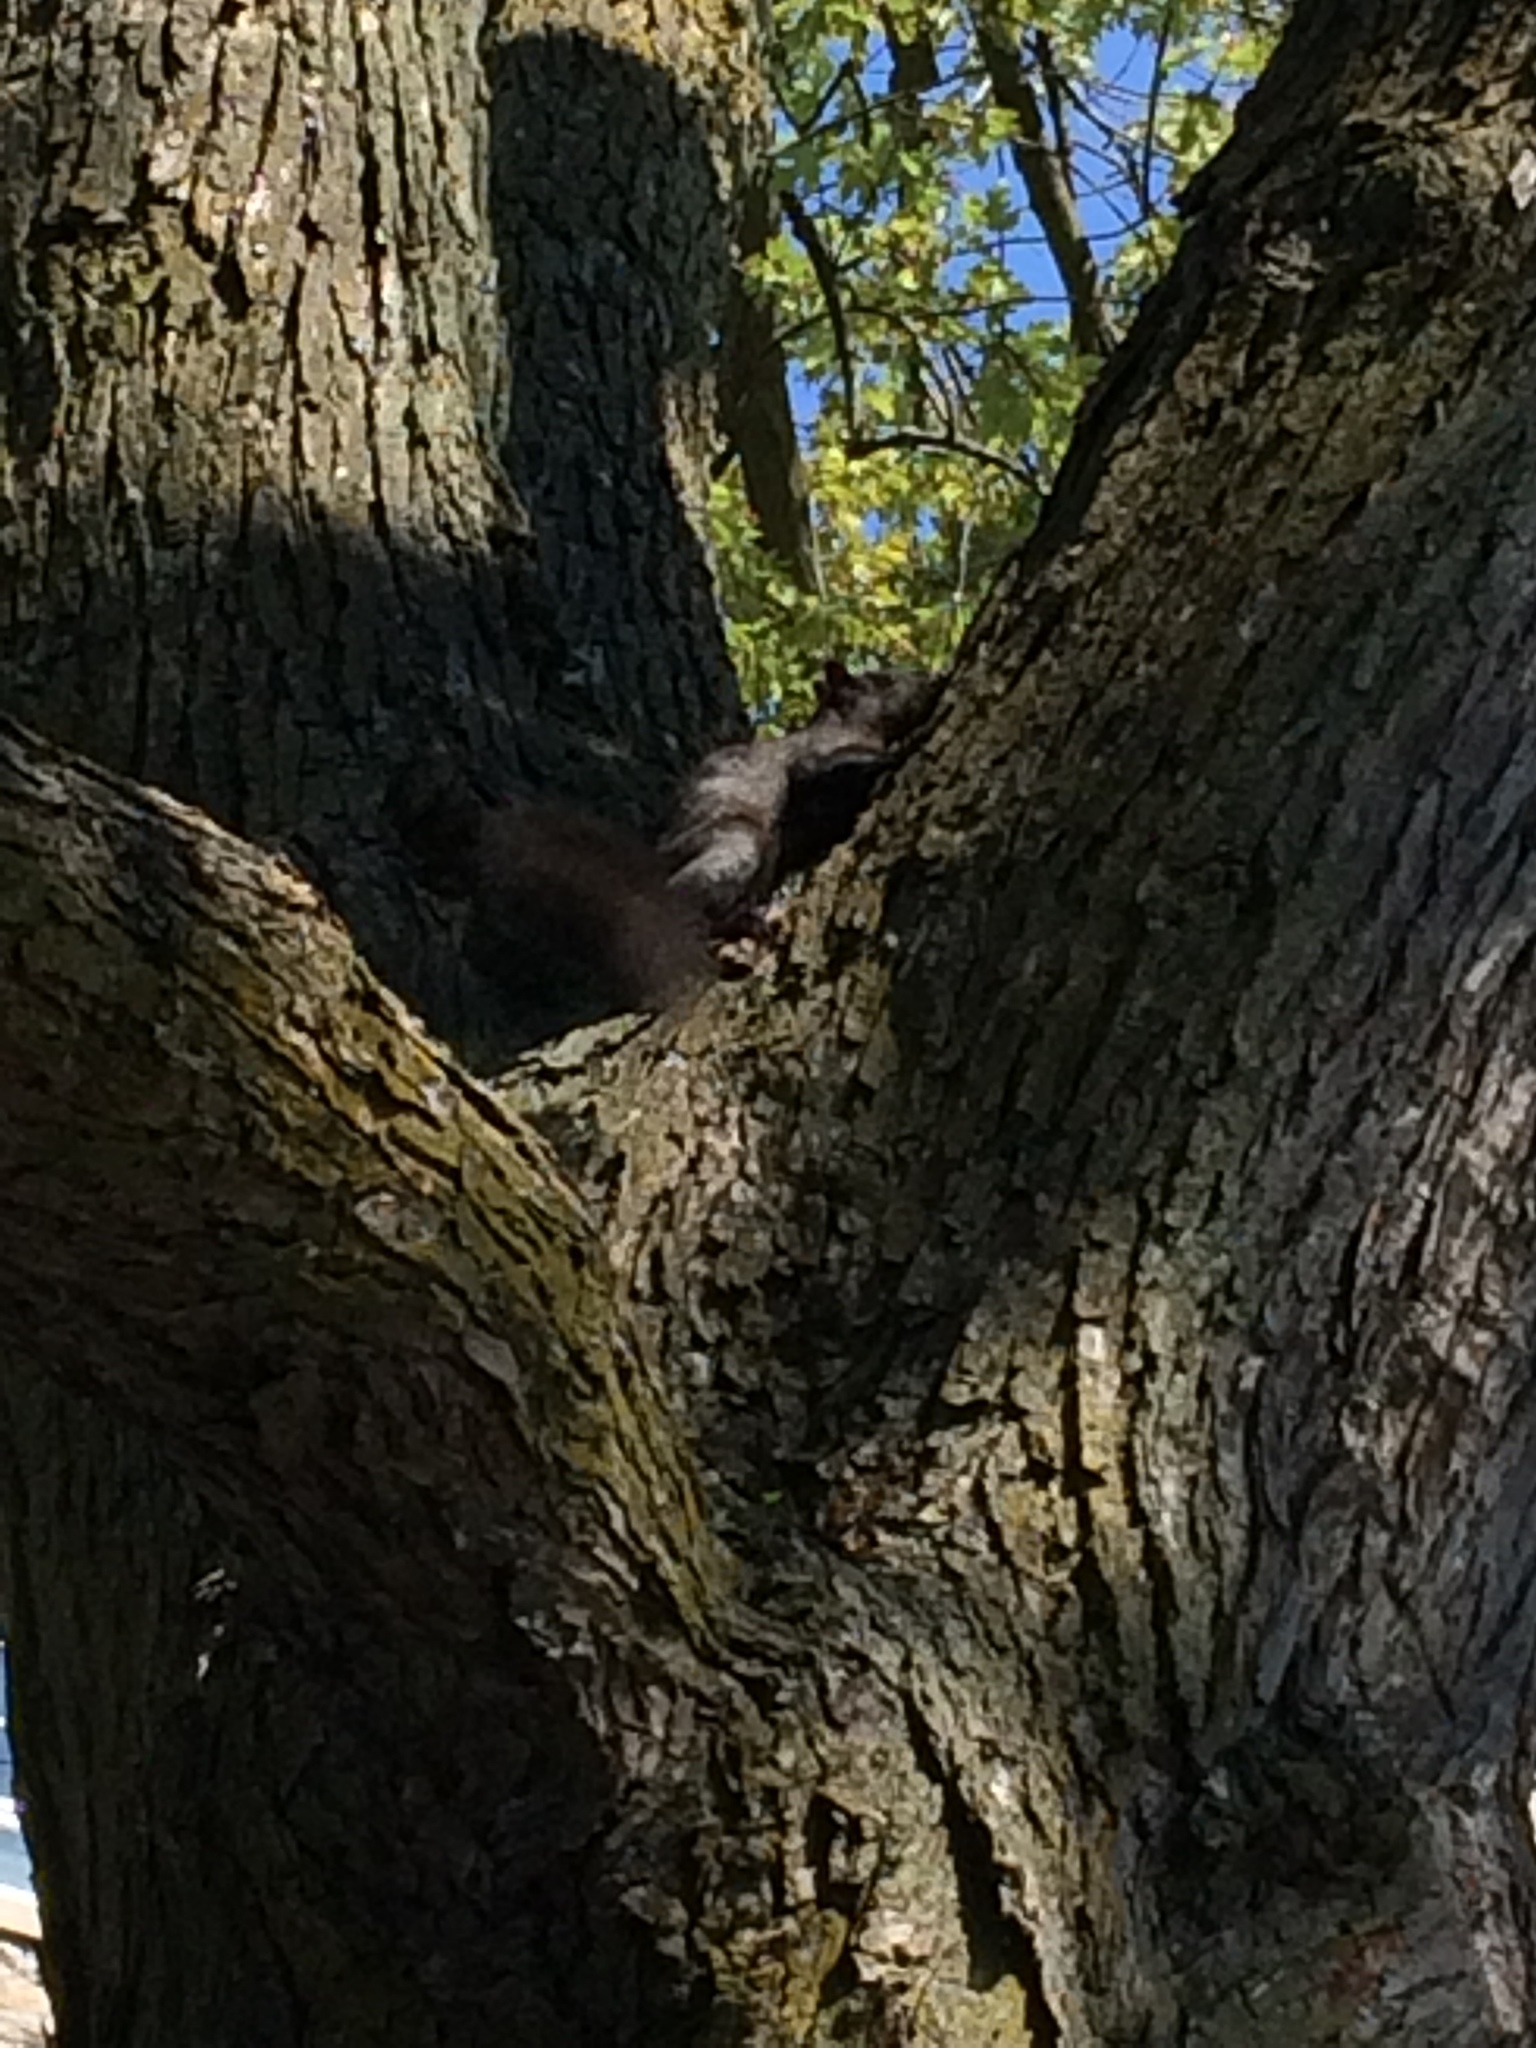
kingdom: Animalia
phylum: Chordata
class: Mammalia
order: Rodentia
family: Sciuridae
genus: Sciurus
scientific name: Sciurus carolinensis
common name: Eastern gray squirrel
